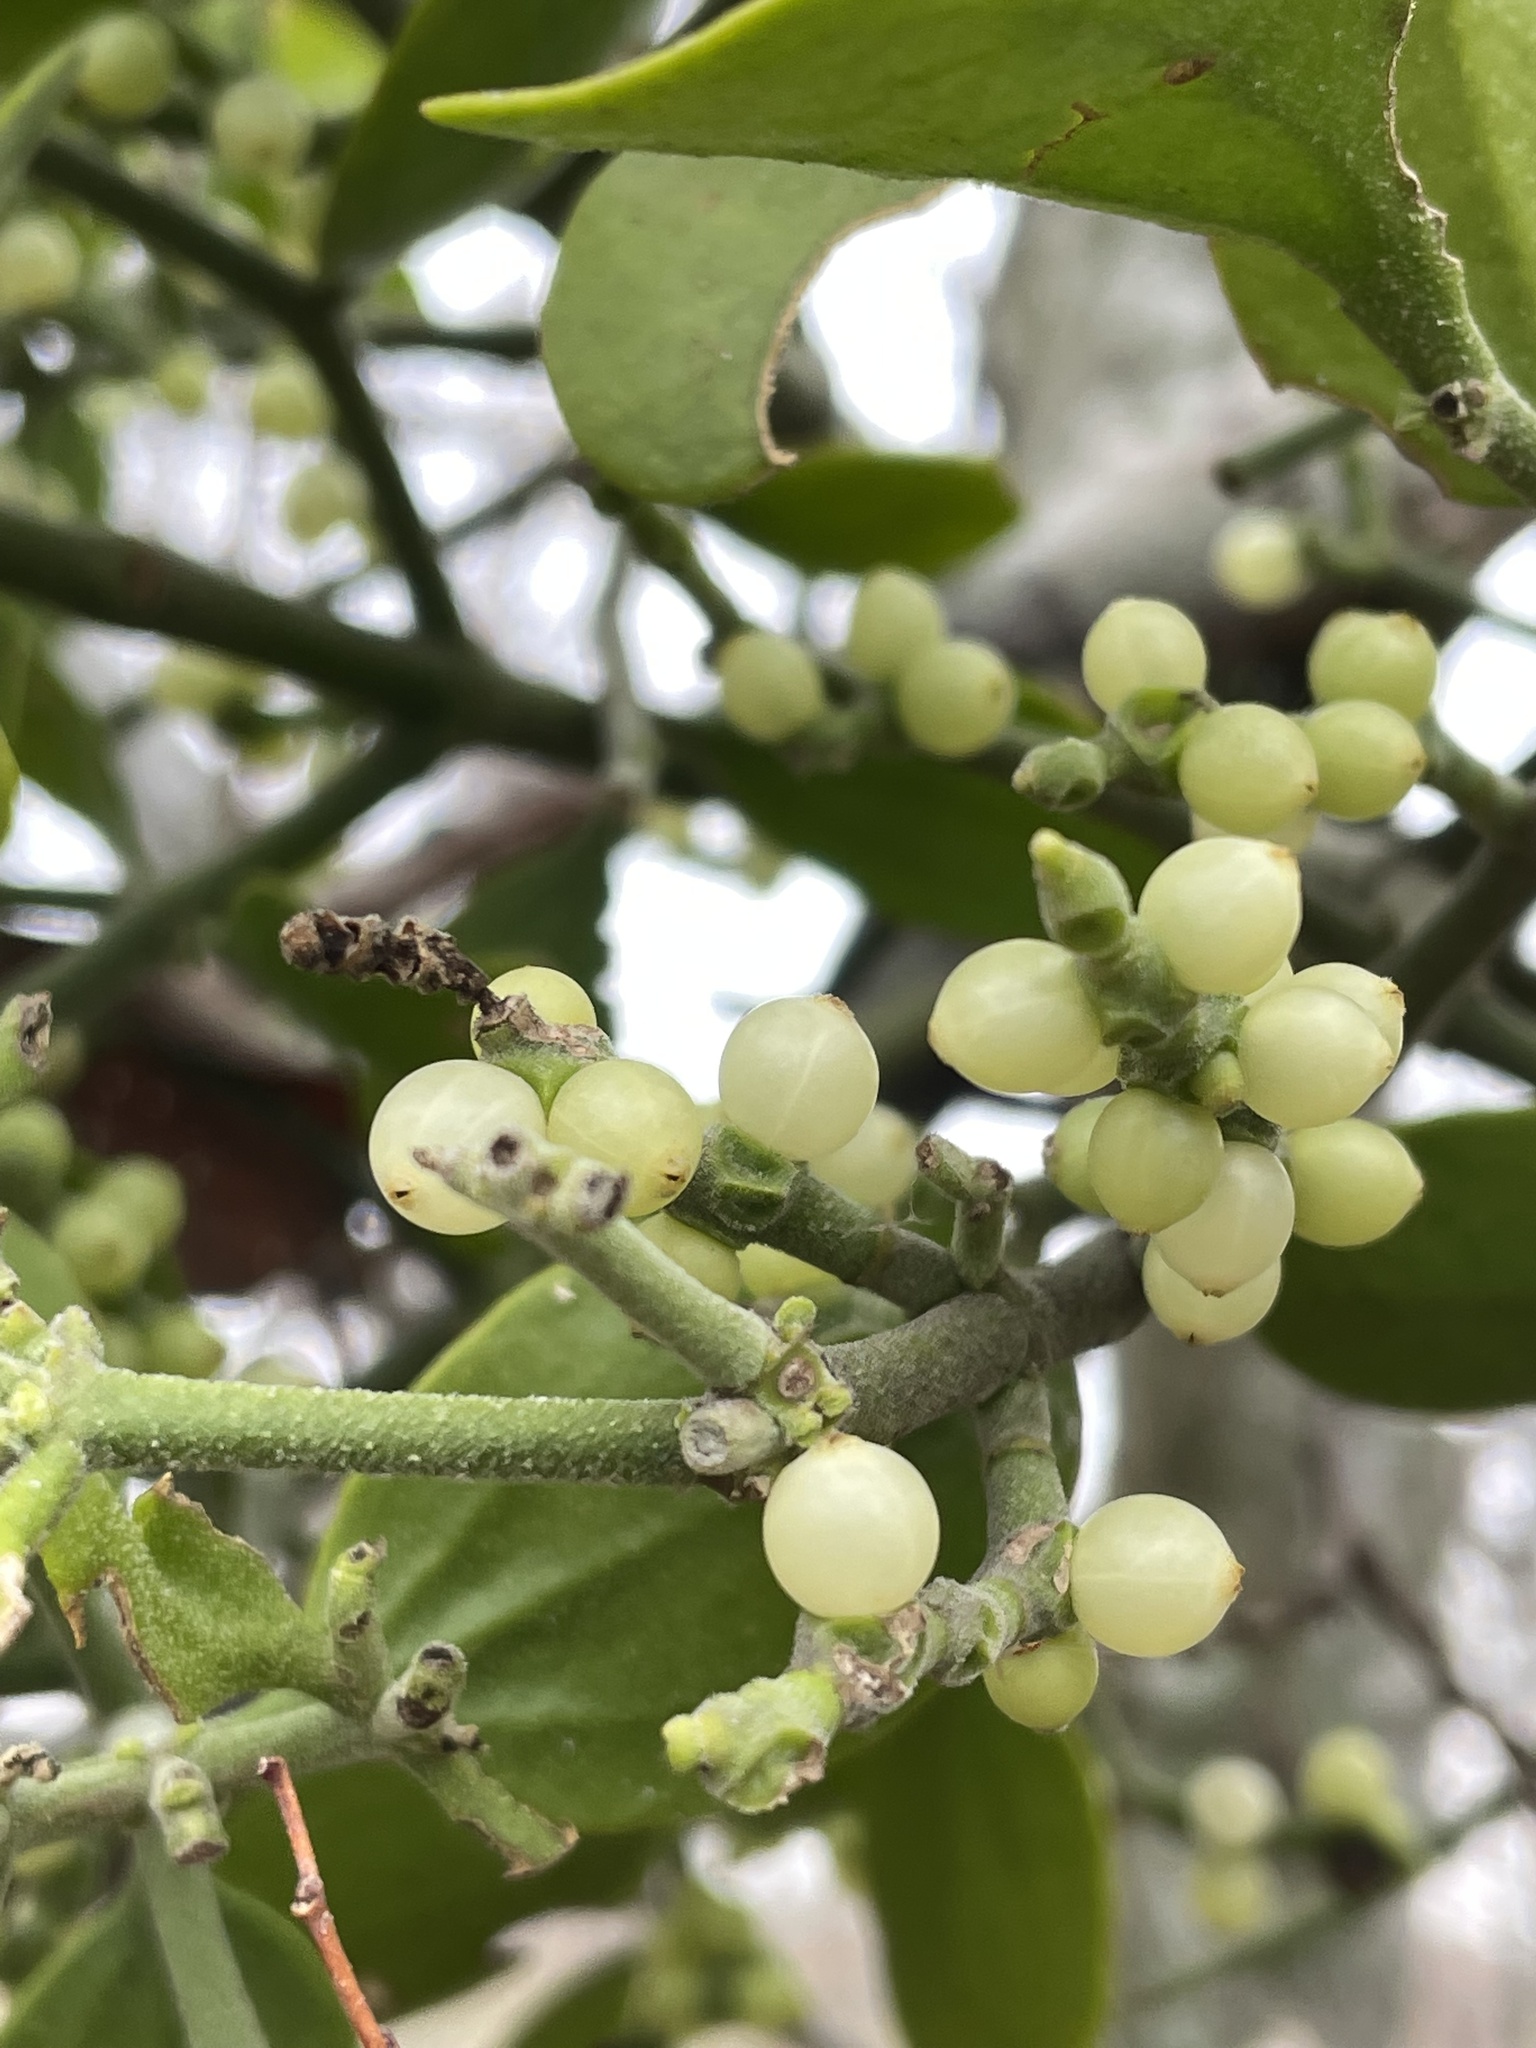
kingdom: Plantae
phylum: Tracheophyta
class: Magnoliopsida
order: Santalales
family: Viscaceae
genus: Phoradendron
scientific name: Phoradendron leucarpum
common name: Pacific mistletoe
